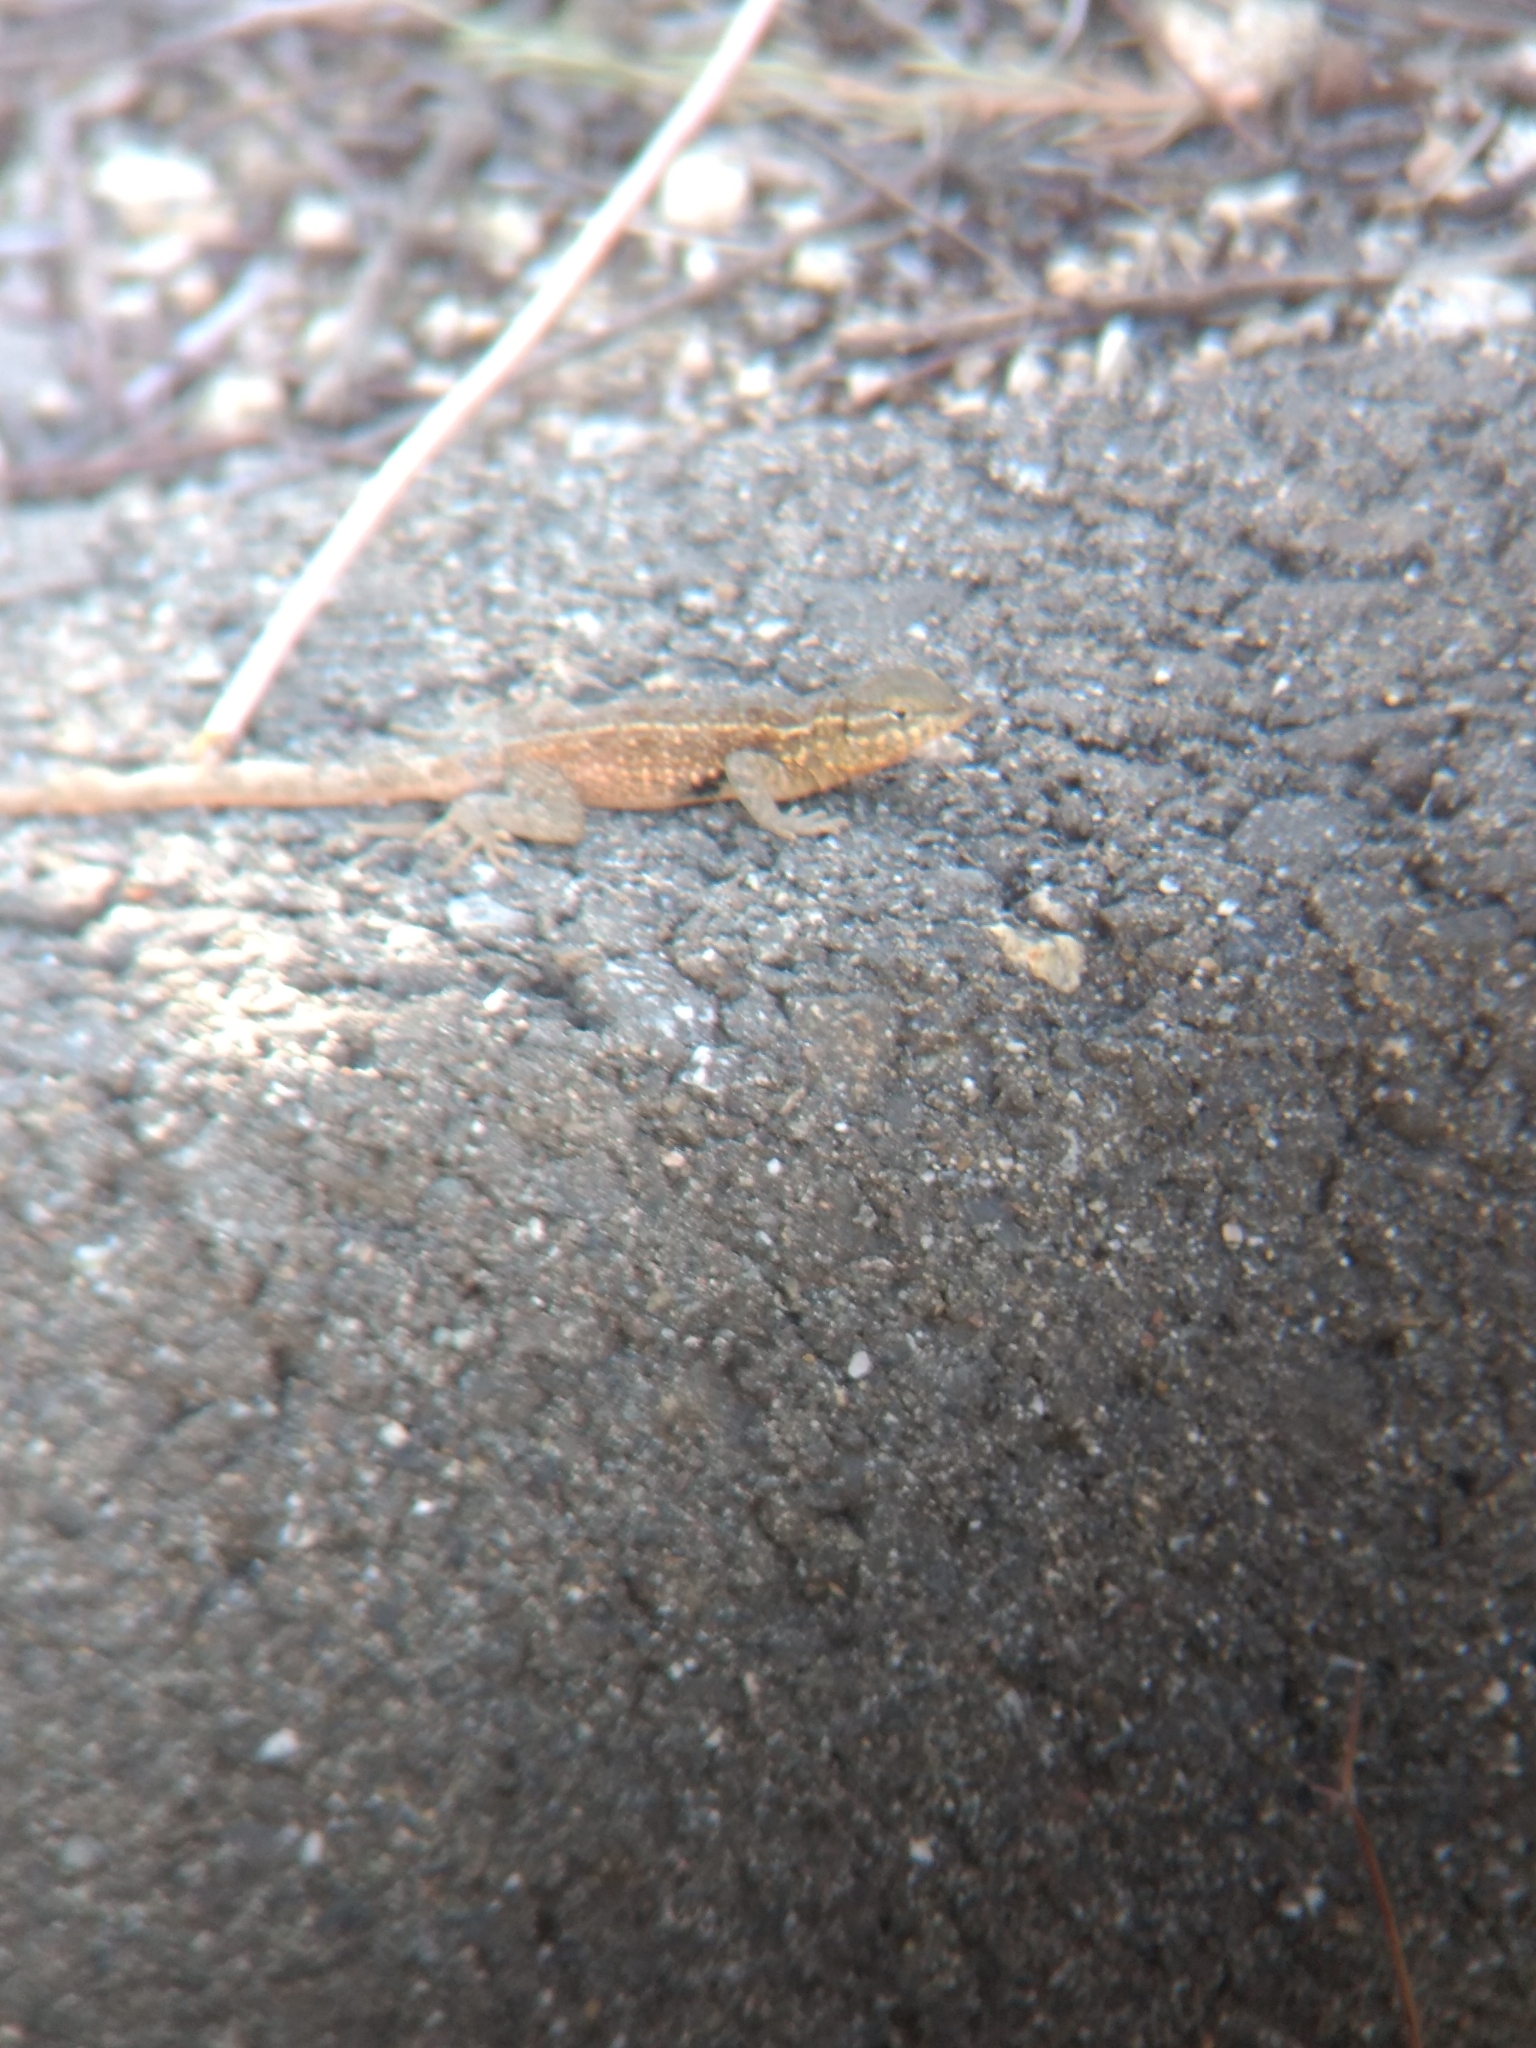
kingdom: Animalia
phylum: Chordata
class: Squamata
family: Phrynosomatidae
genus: Uta
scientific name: Uta stansburiana
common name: Side-blotched lizard
